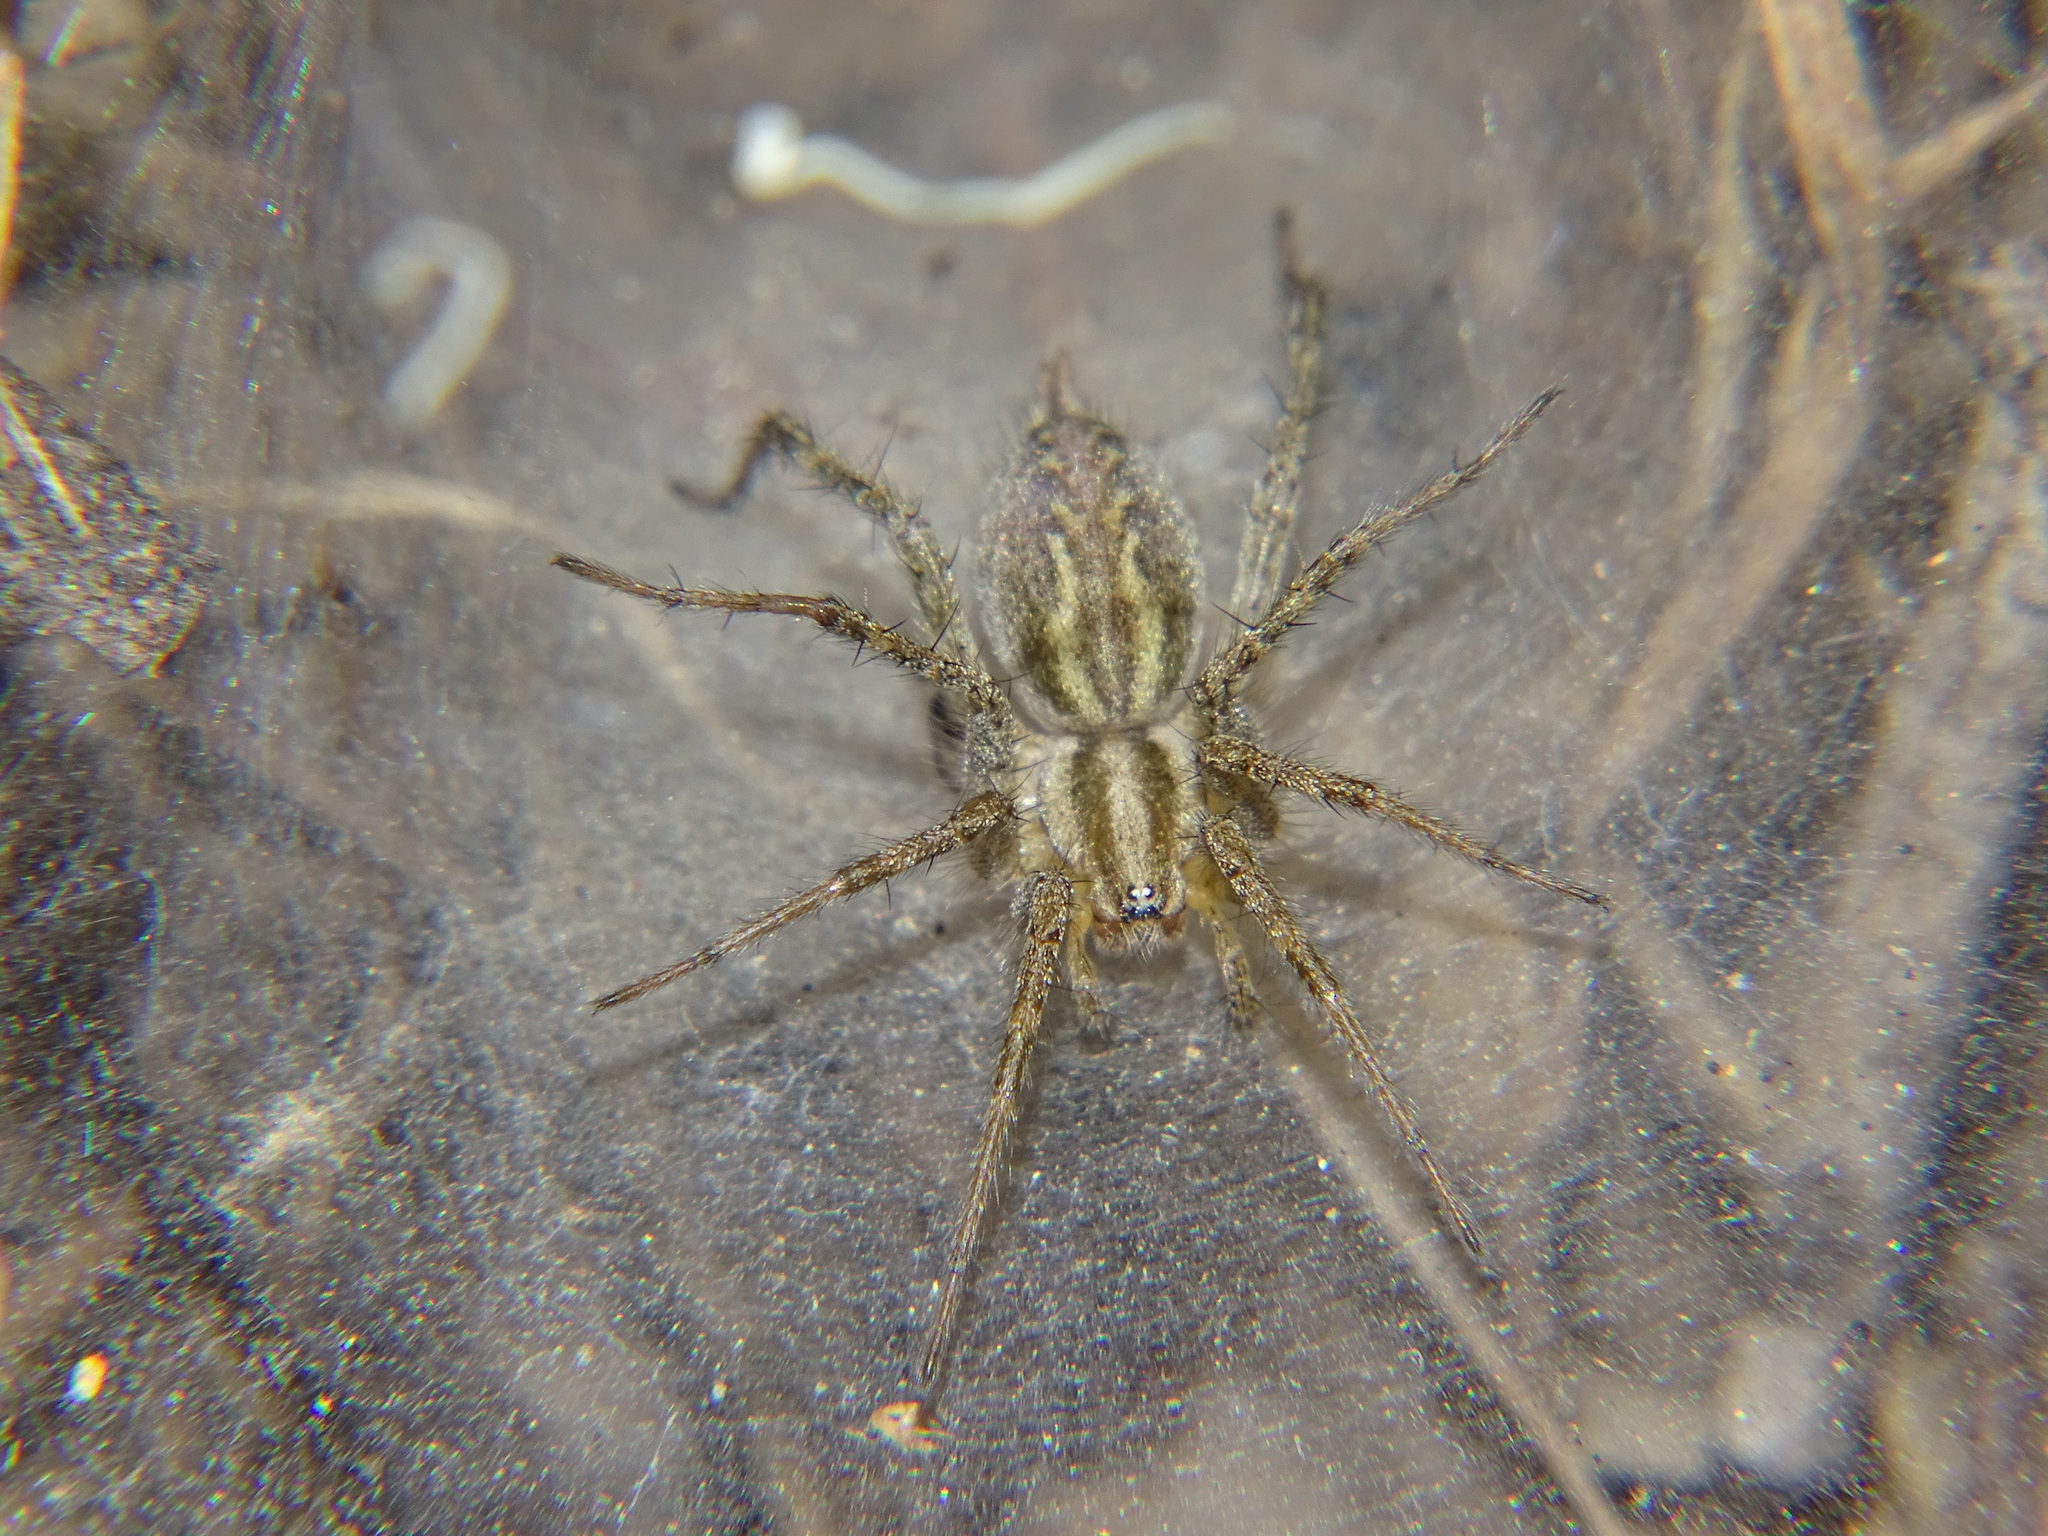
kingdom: Animalia
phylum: Arthropoda
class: Arachnida
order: Araneae
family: Agelenidae
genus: Agelenopsis
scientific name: Agelenopsis
